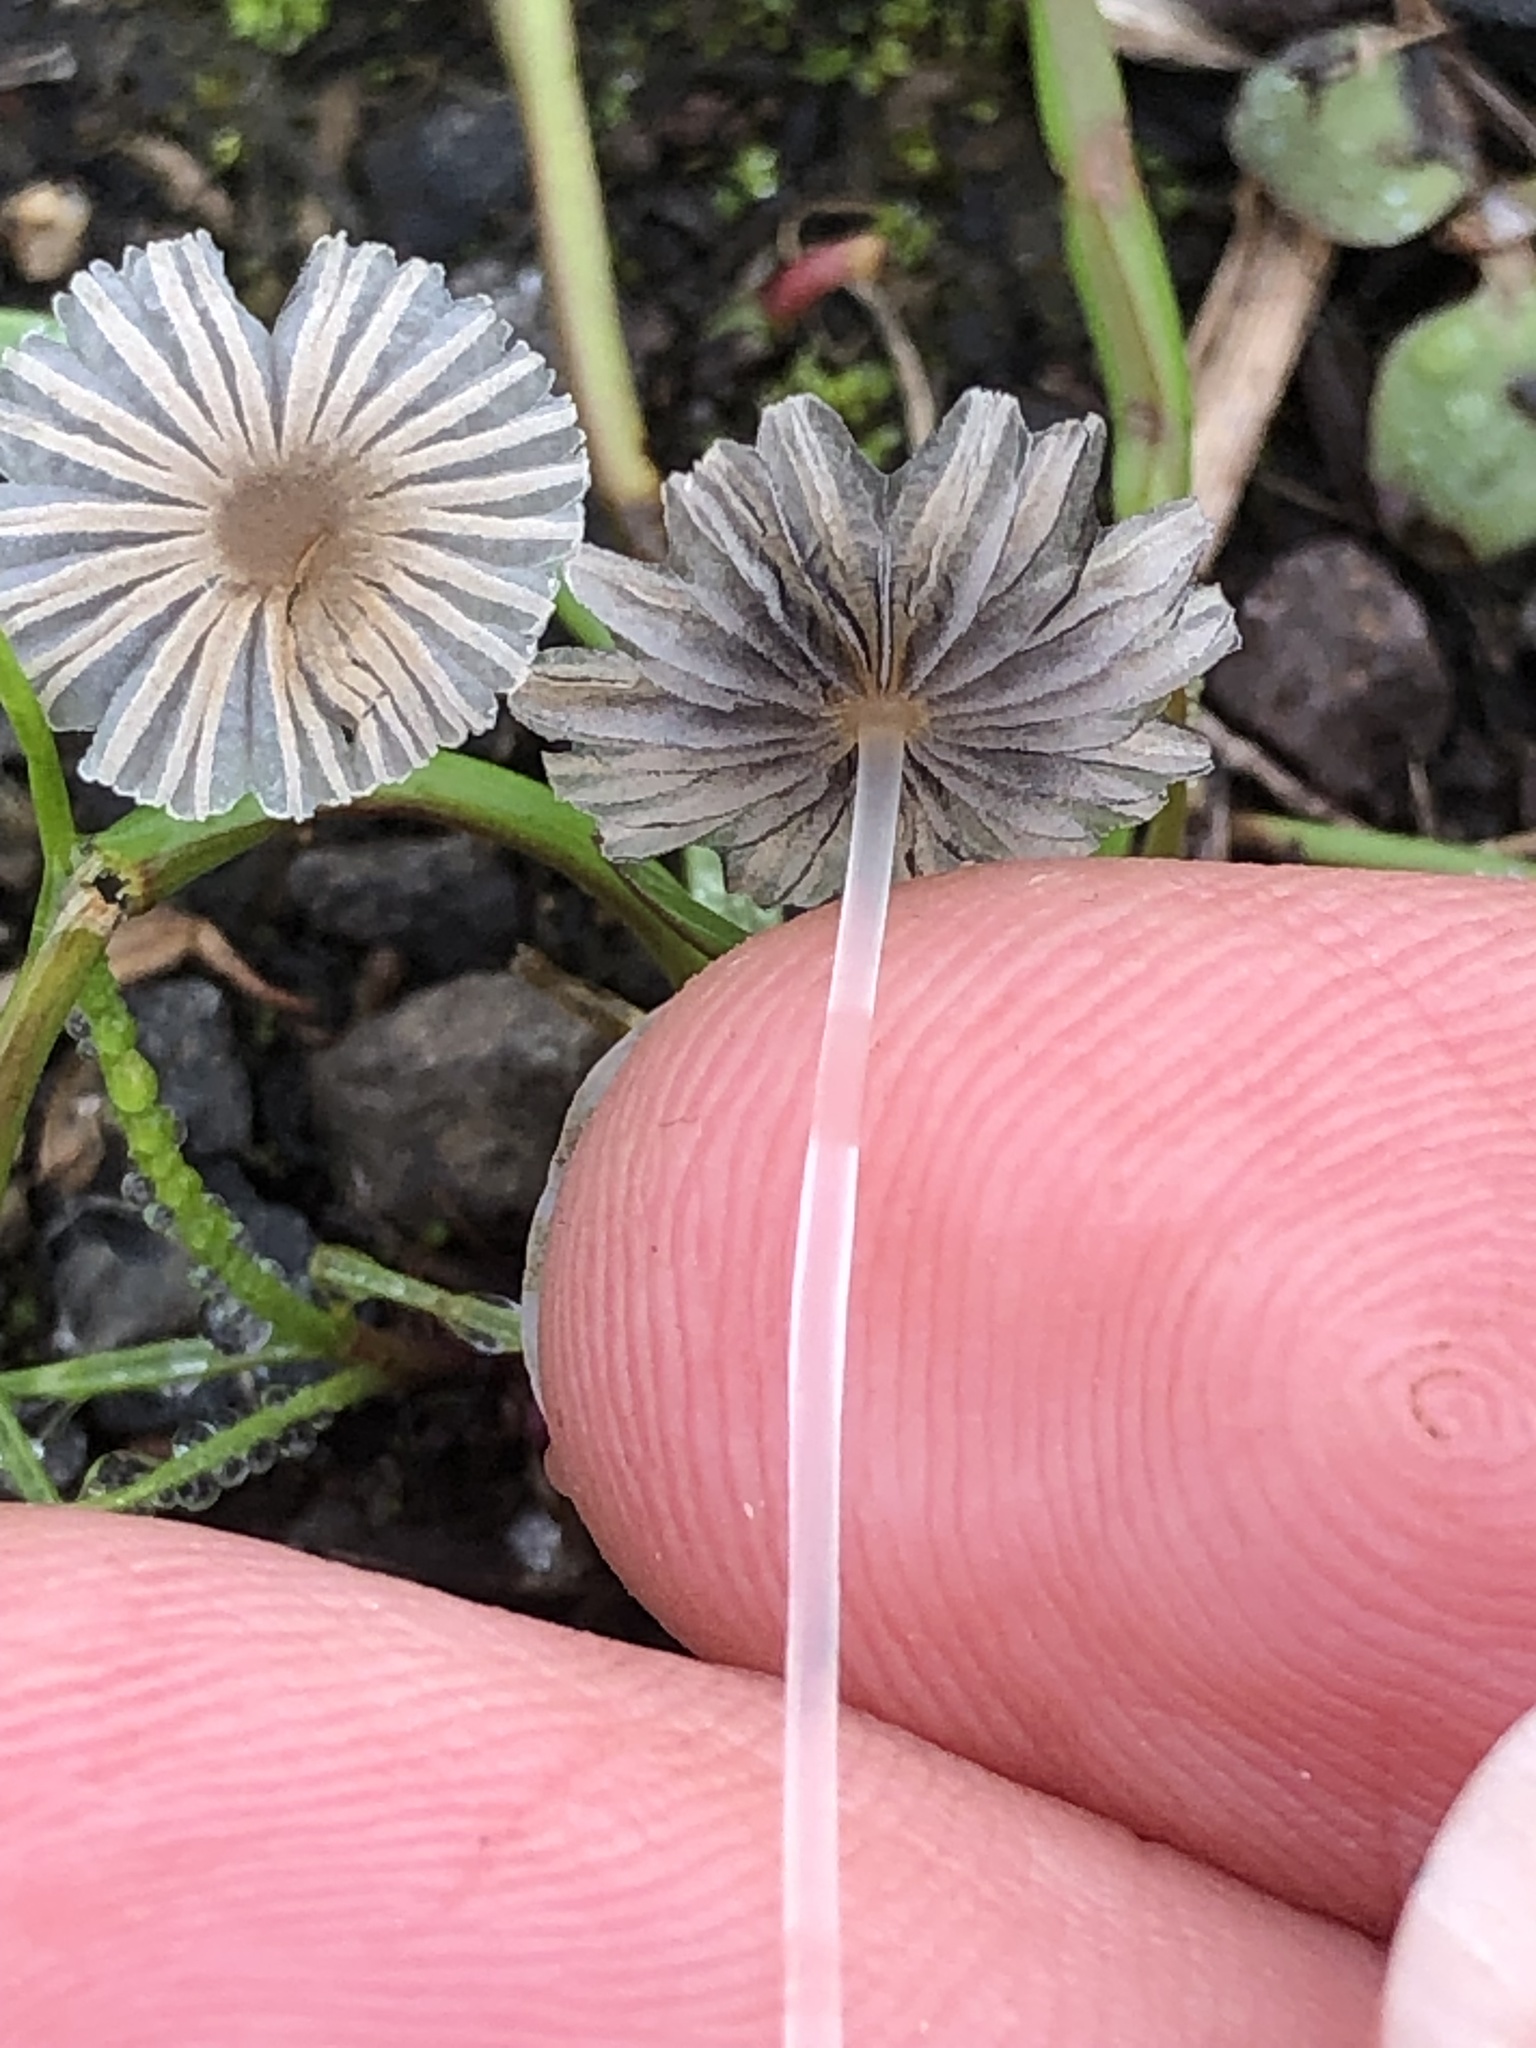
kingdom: Fungi
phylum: Basidiomycota
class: Agaricomycetes
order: Agaricales
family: Psathyrellaceae
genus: Parasola
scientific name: Parasola plicatilis
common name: Pleated inkcap
